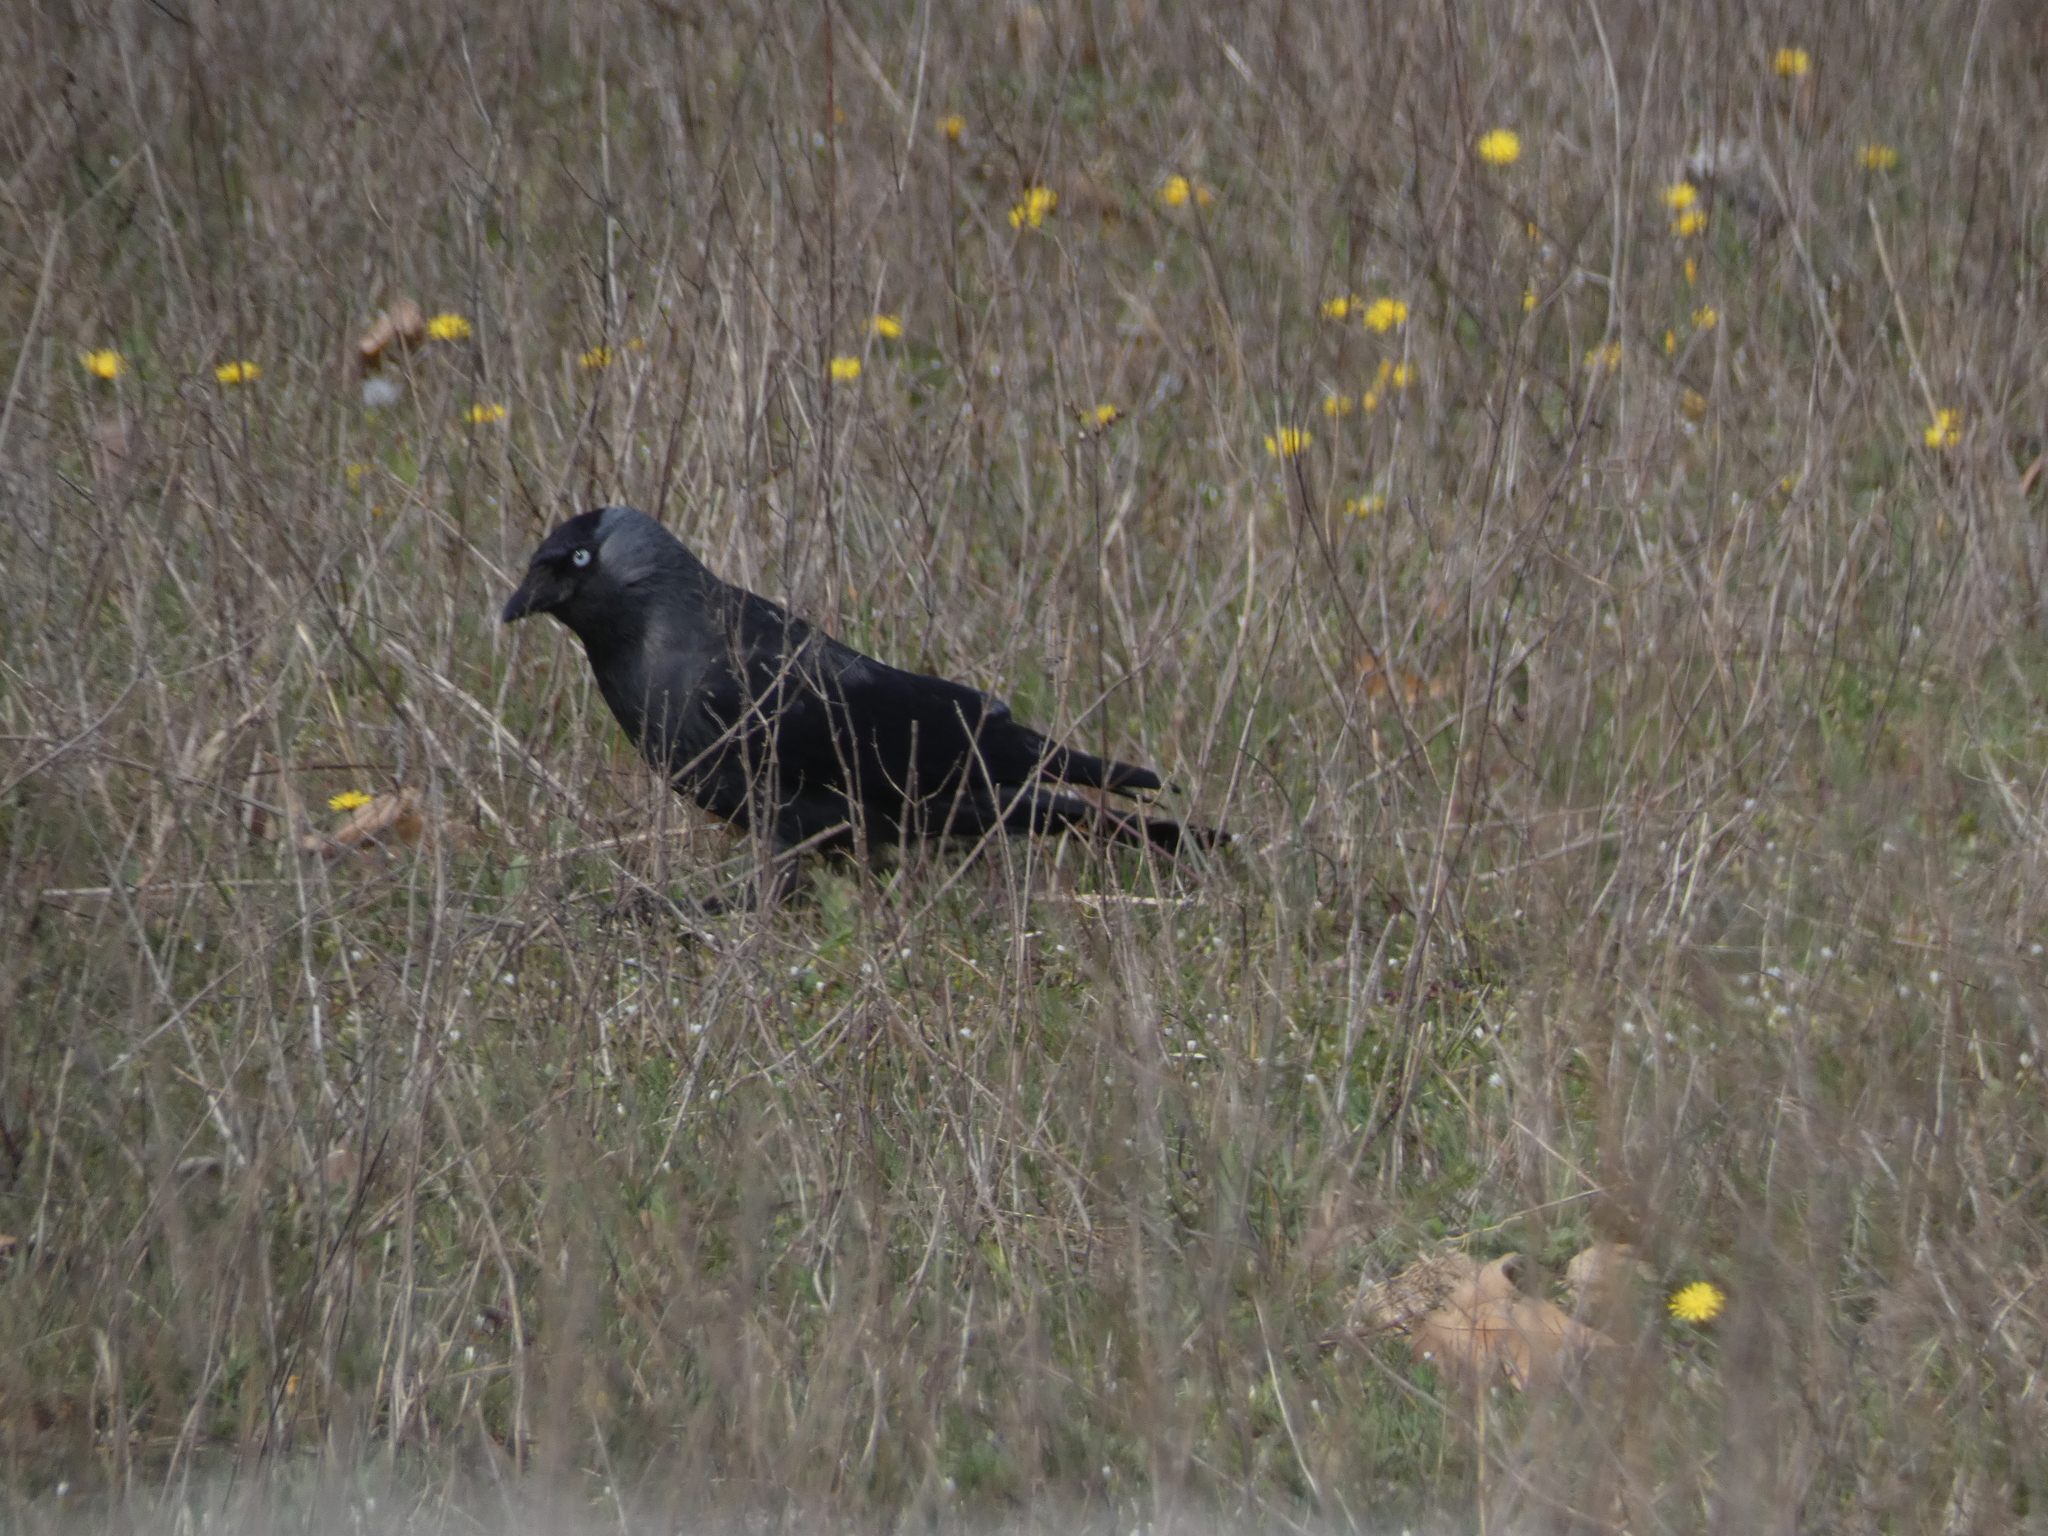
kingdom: Animalia
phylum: Chordata
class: Aves
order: Passeriformes
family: Corvidae
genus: Coloeus
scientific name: Coloeus monedula
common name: Western jackdaw
